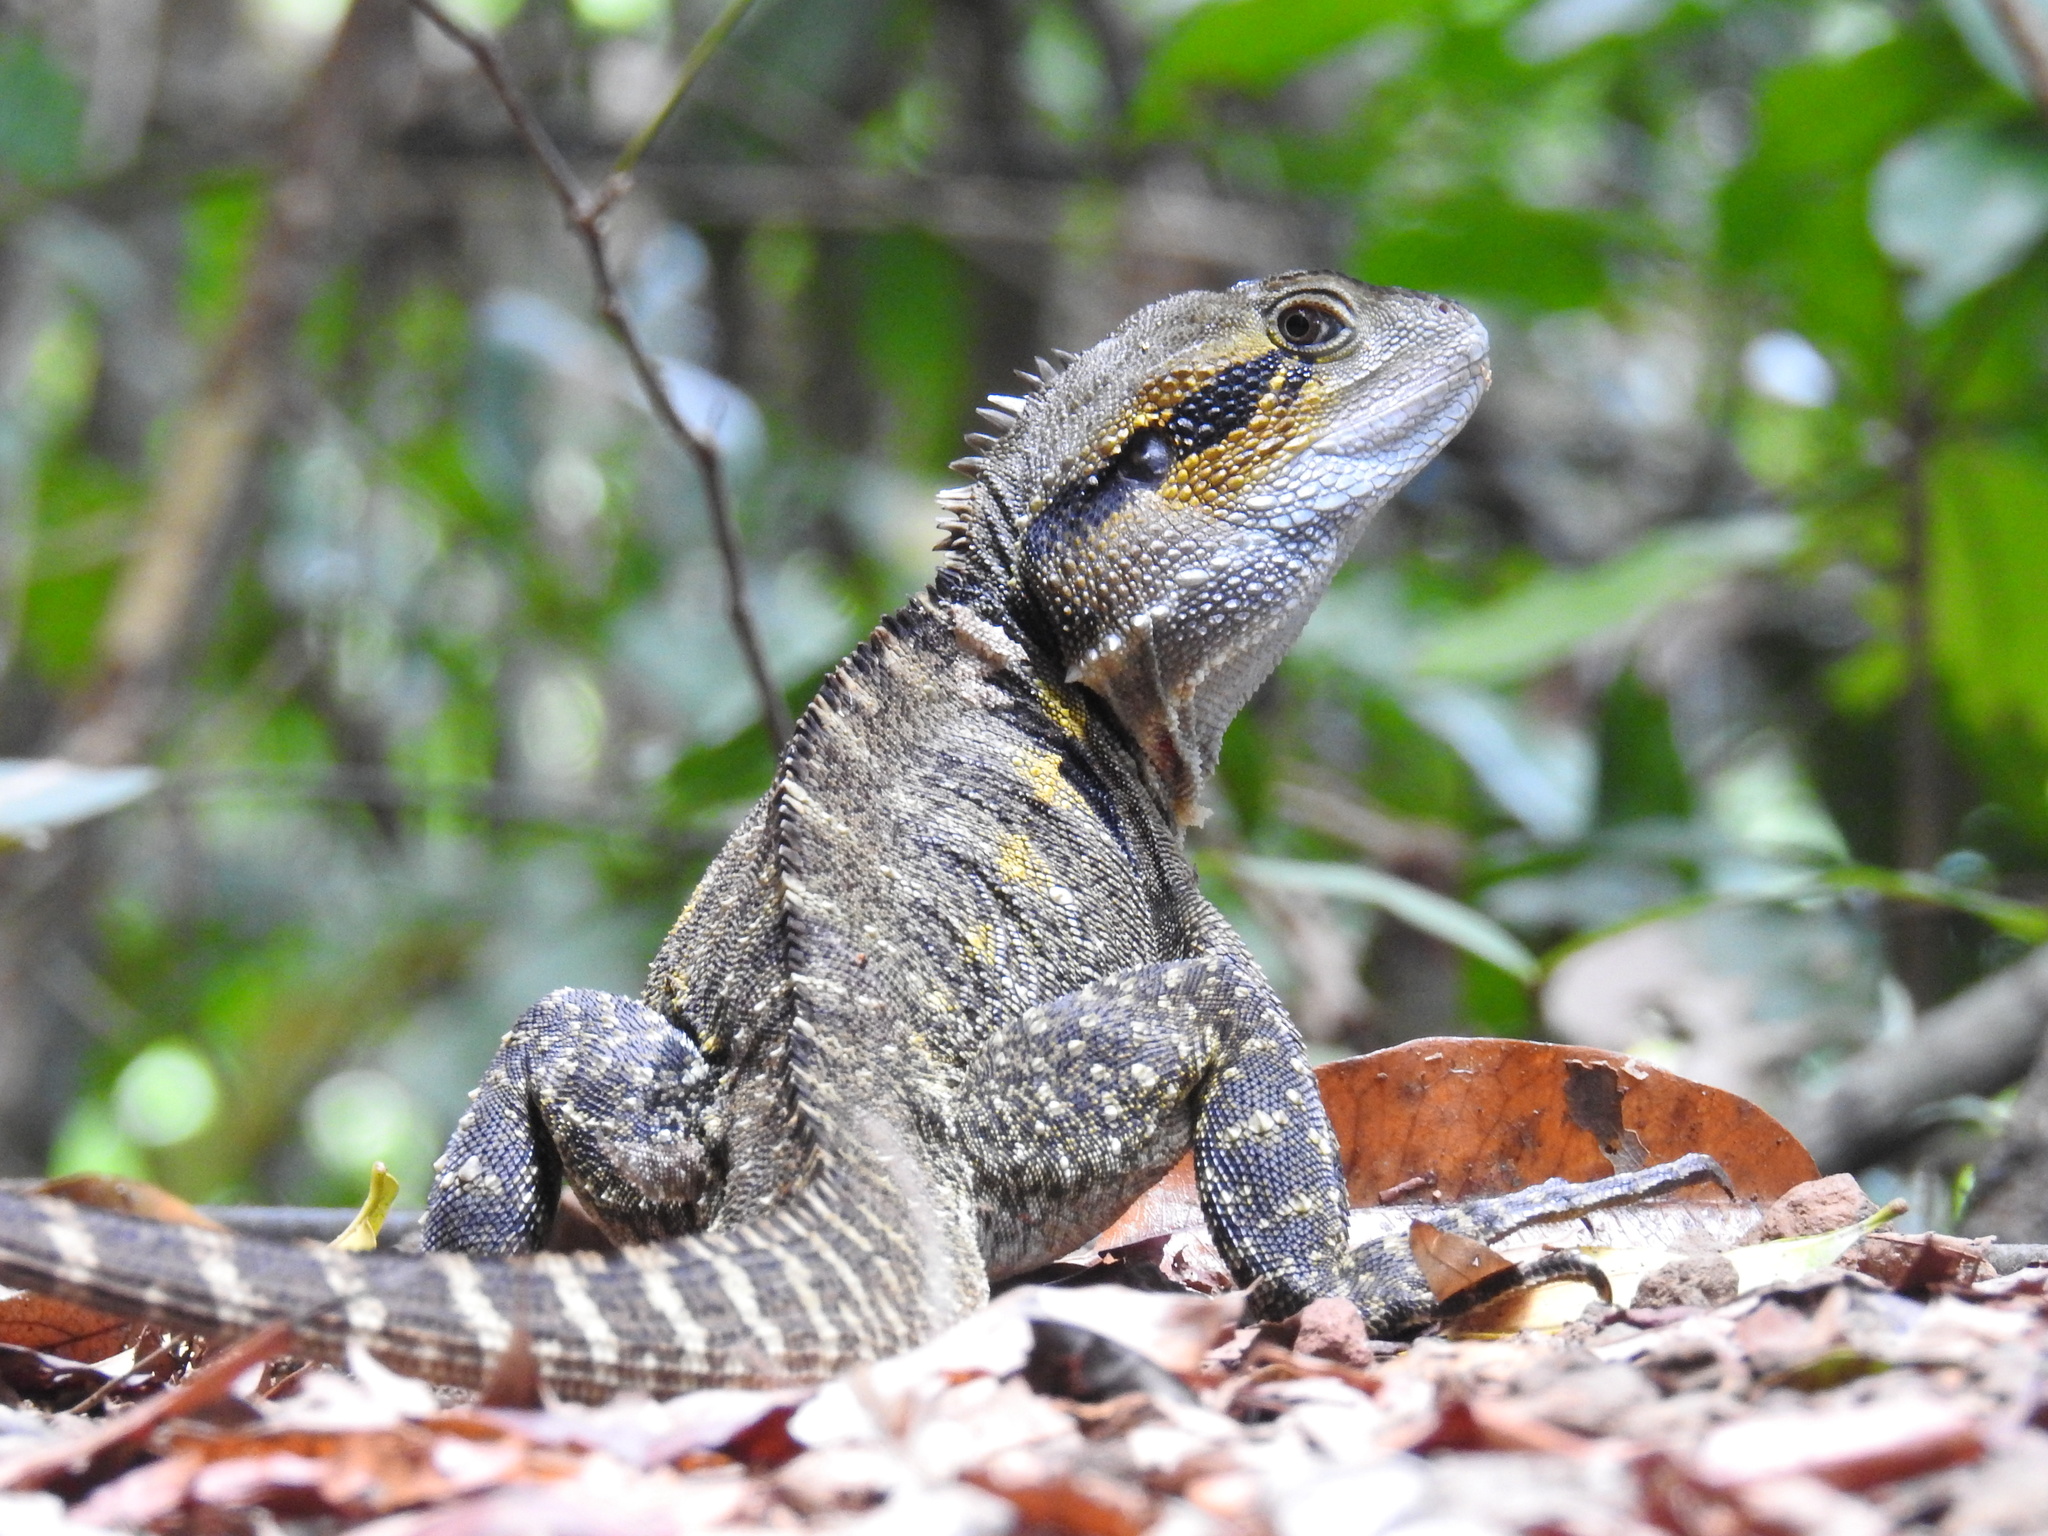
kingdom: Animalia
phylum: Chordata
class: Squamata
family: Agamidae
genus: Intellagama
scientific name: Intellagama lesueurii
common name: Eastern water dragon
